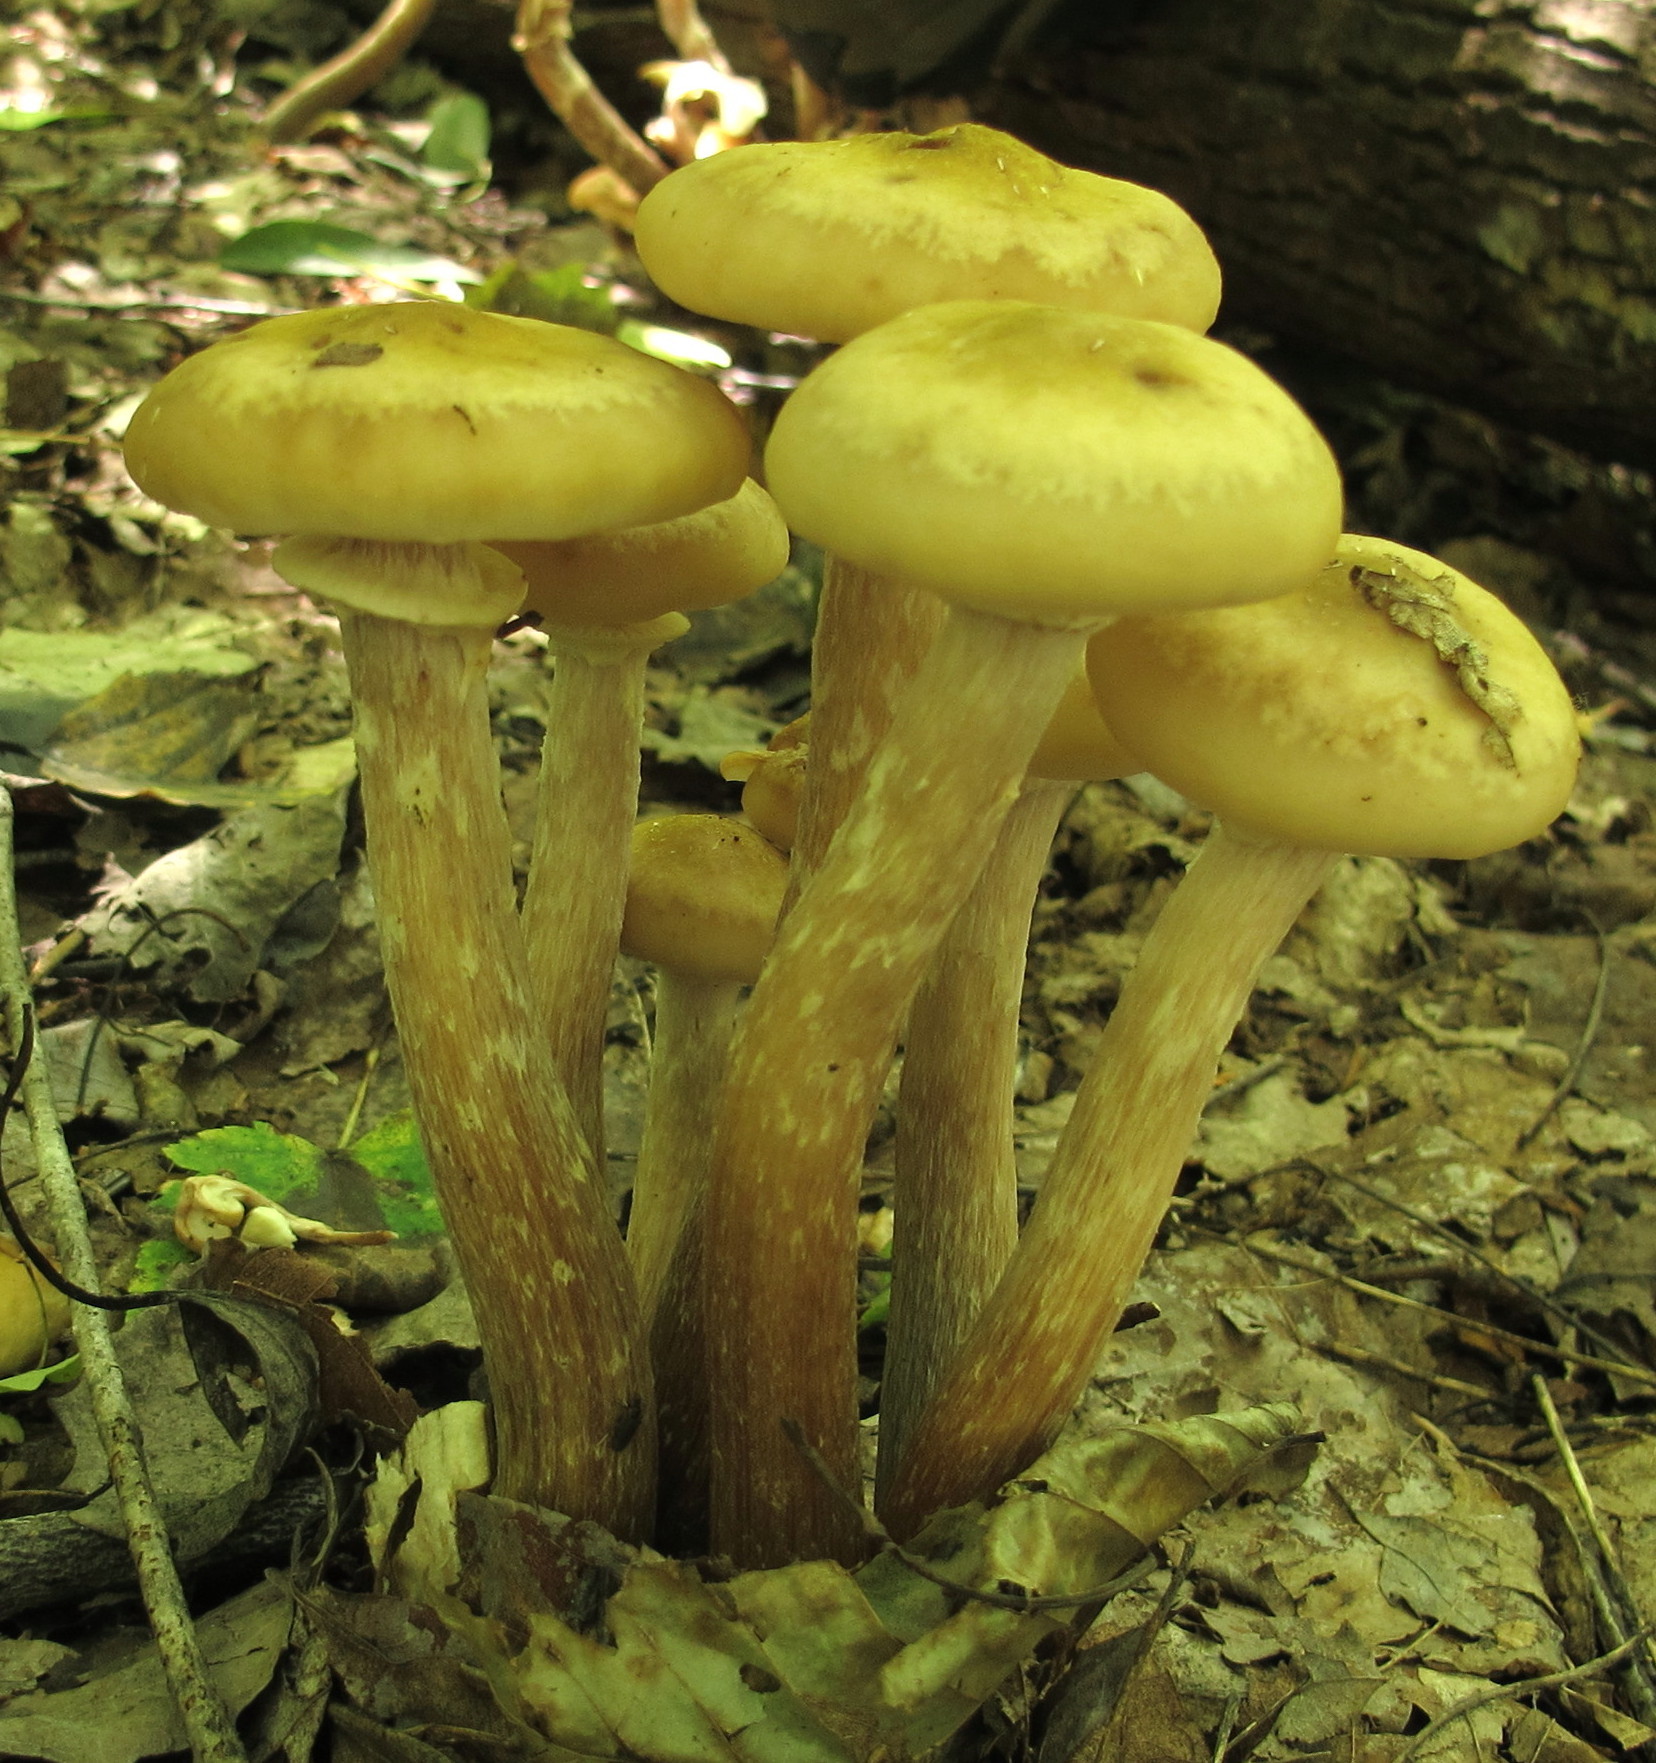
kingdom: Fungi
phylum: Basidiomycota
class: Agaricomycetes
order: Agaricales
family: Physalacriaceae
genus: Armillaria
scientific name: Armillaria mellea
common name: Honey fungus
